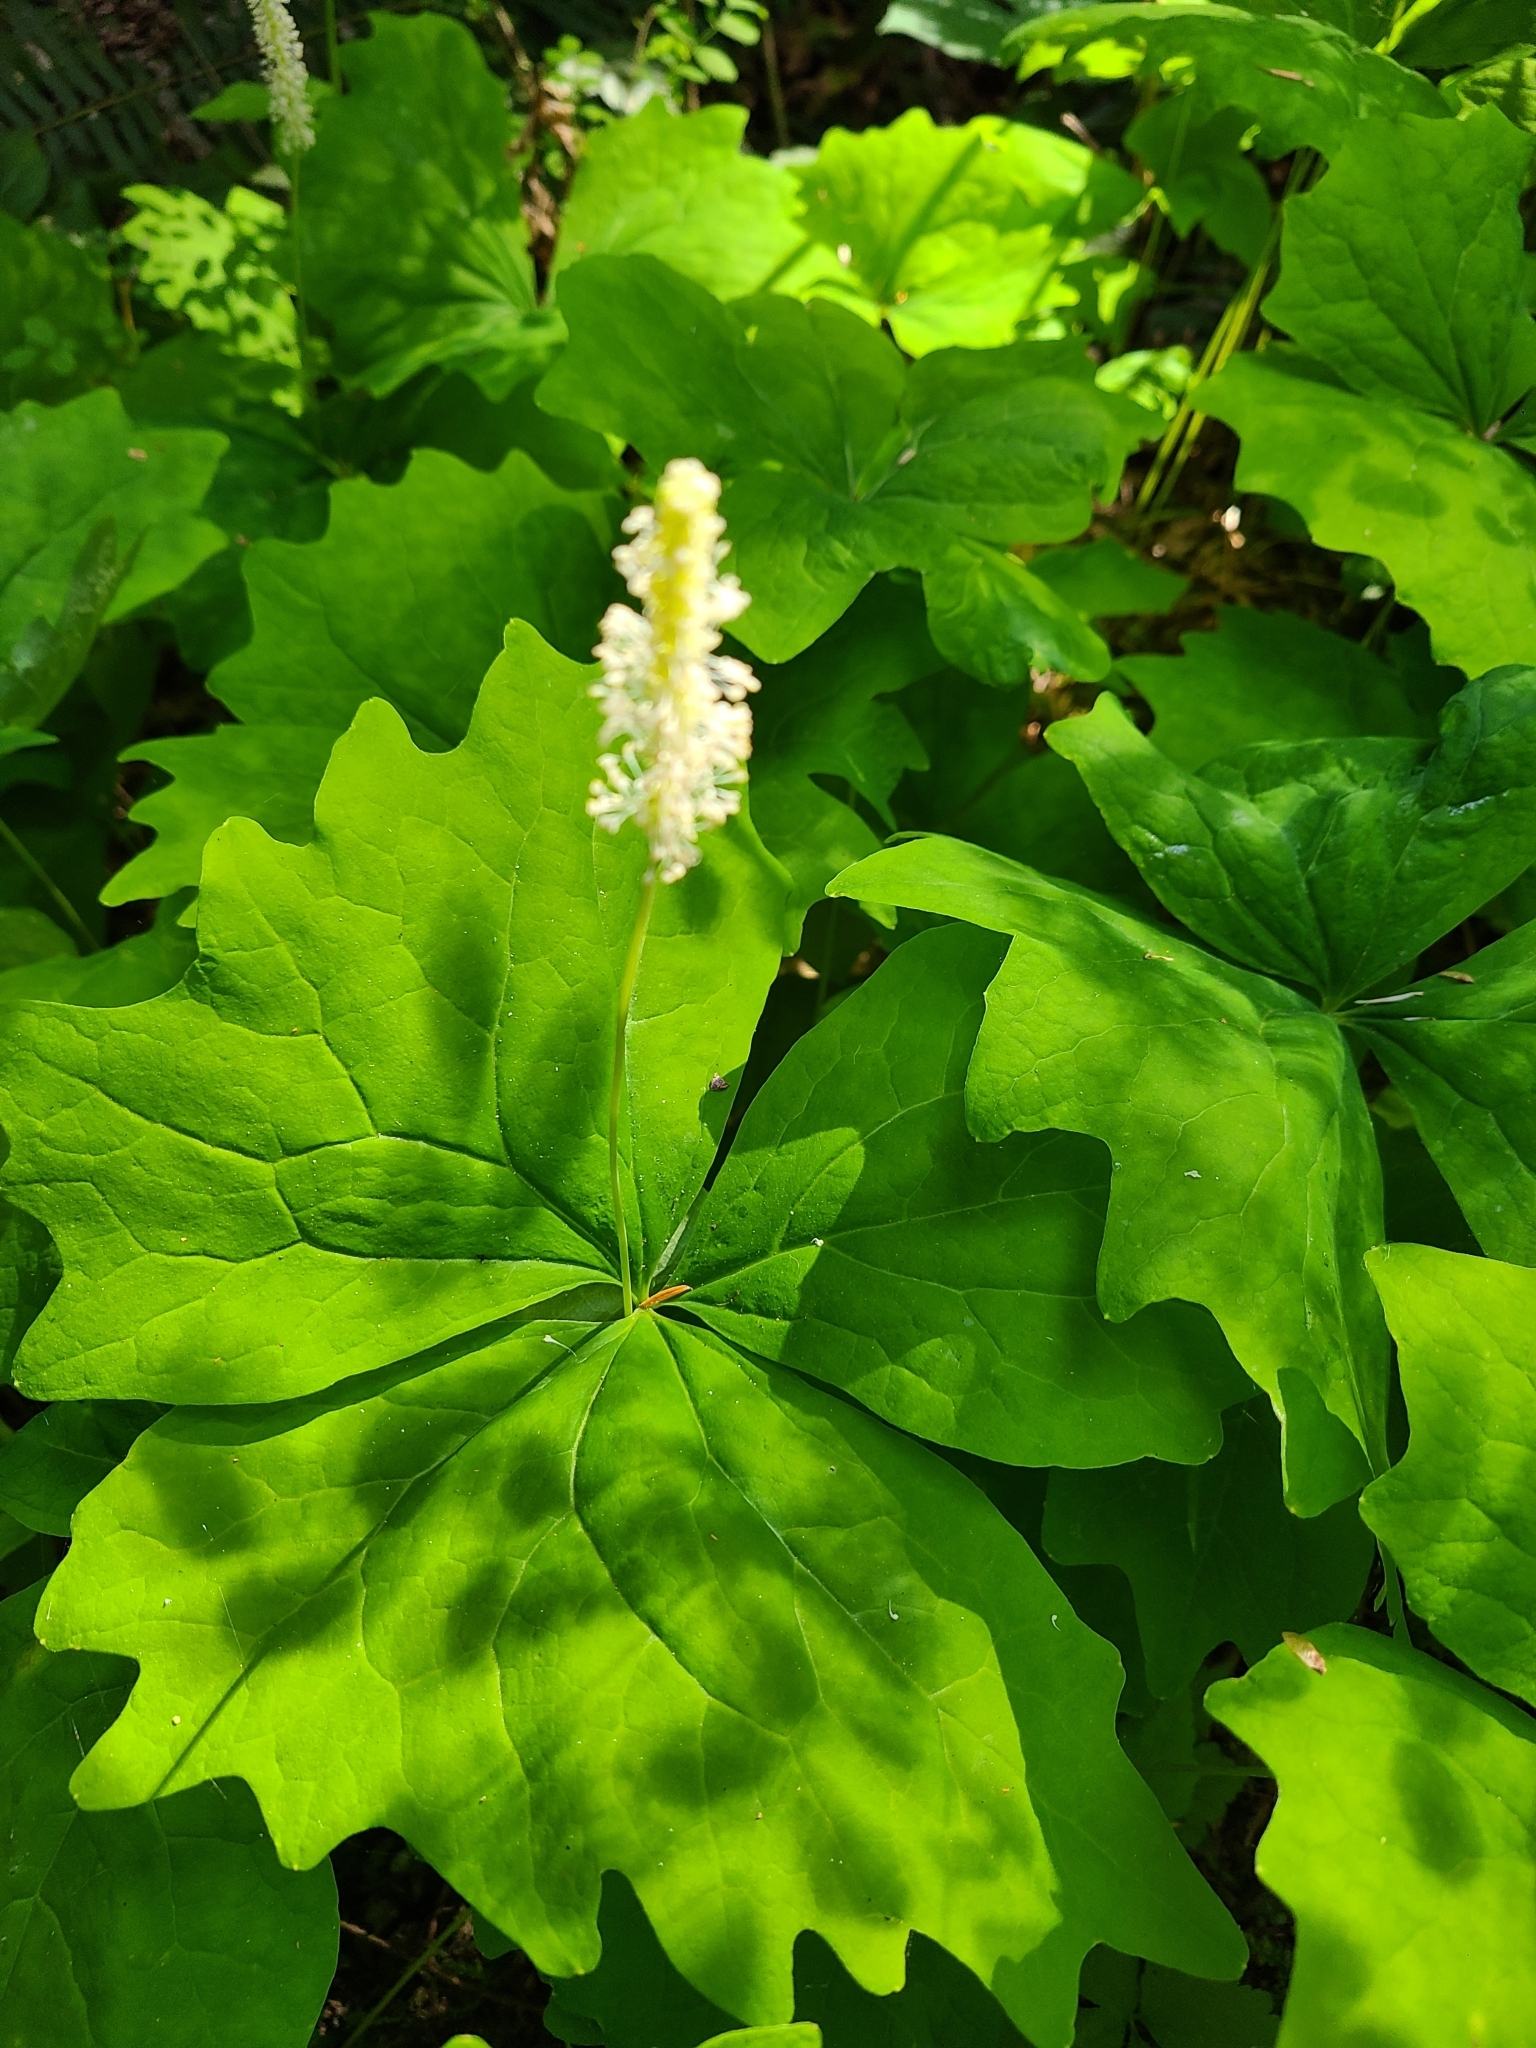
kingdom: Plantae
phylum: Tracheophyta
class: Magnoliopsida
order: Ranunculales
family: Berberidaceae
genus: Achlys
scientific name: Achlys triphylla
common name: Vanilla-leaf
